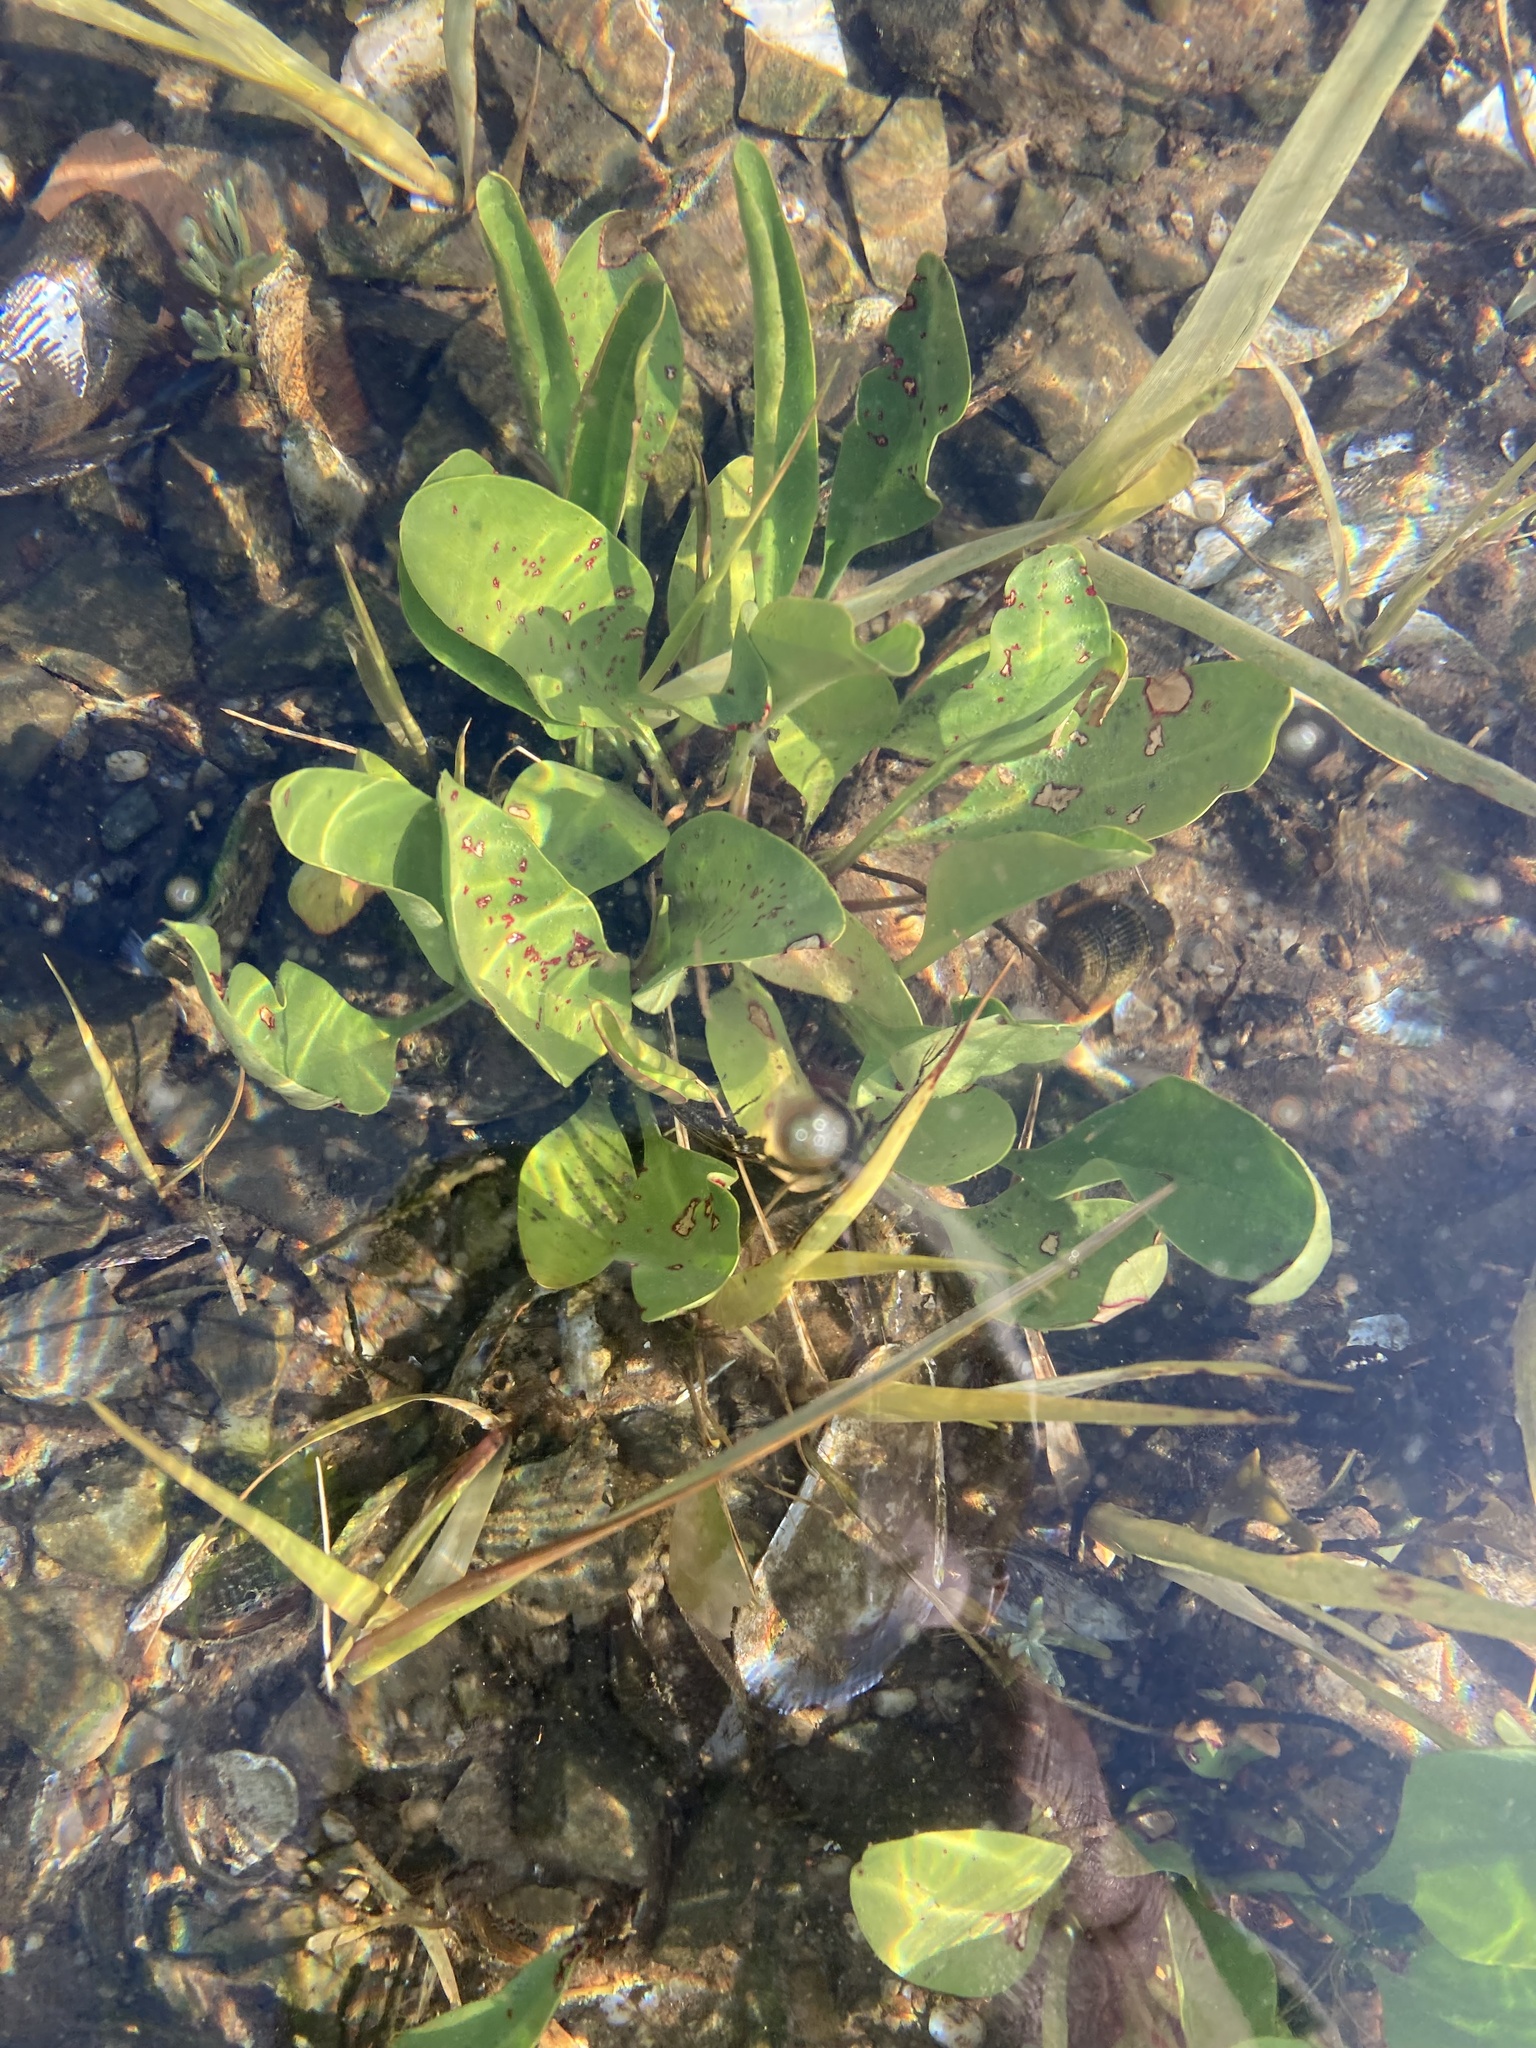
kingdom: Plantae
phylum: Tracheophyta
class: Liliopsida
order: Alismatales
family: Alismataceae
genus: Alisma
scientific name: Alisma subcordatum
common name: Southern water-plantain
